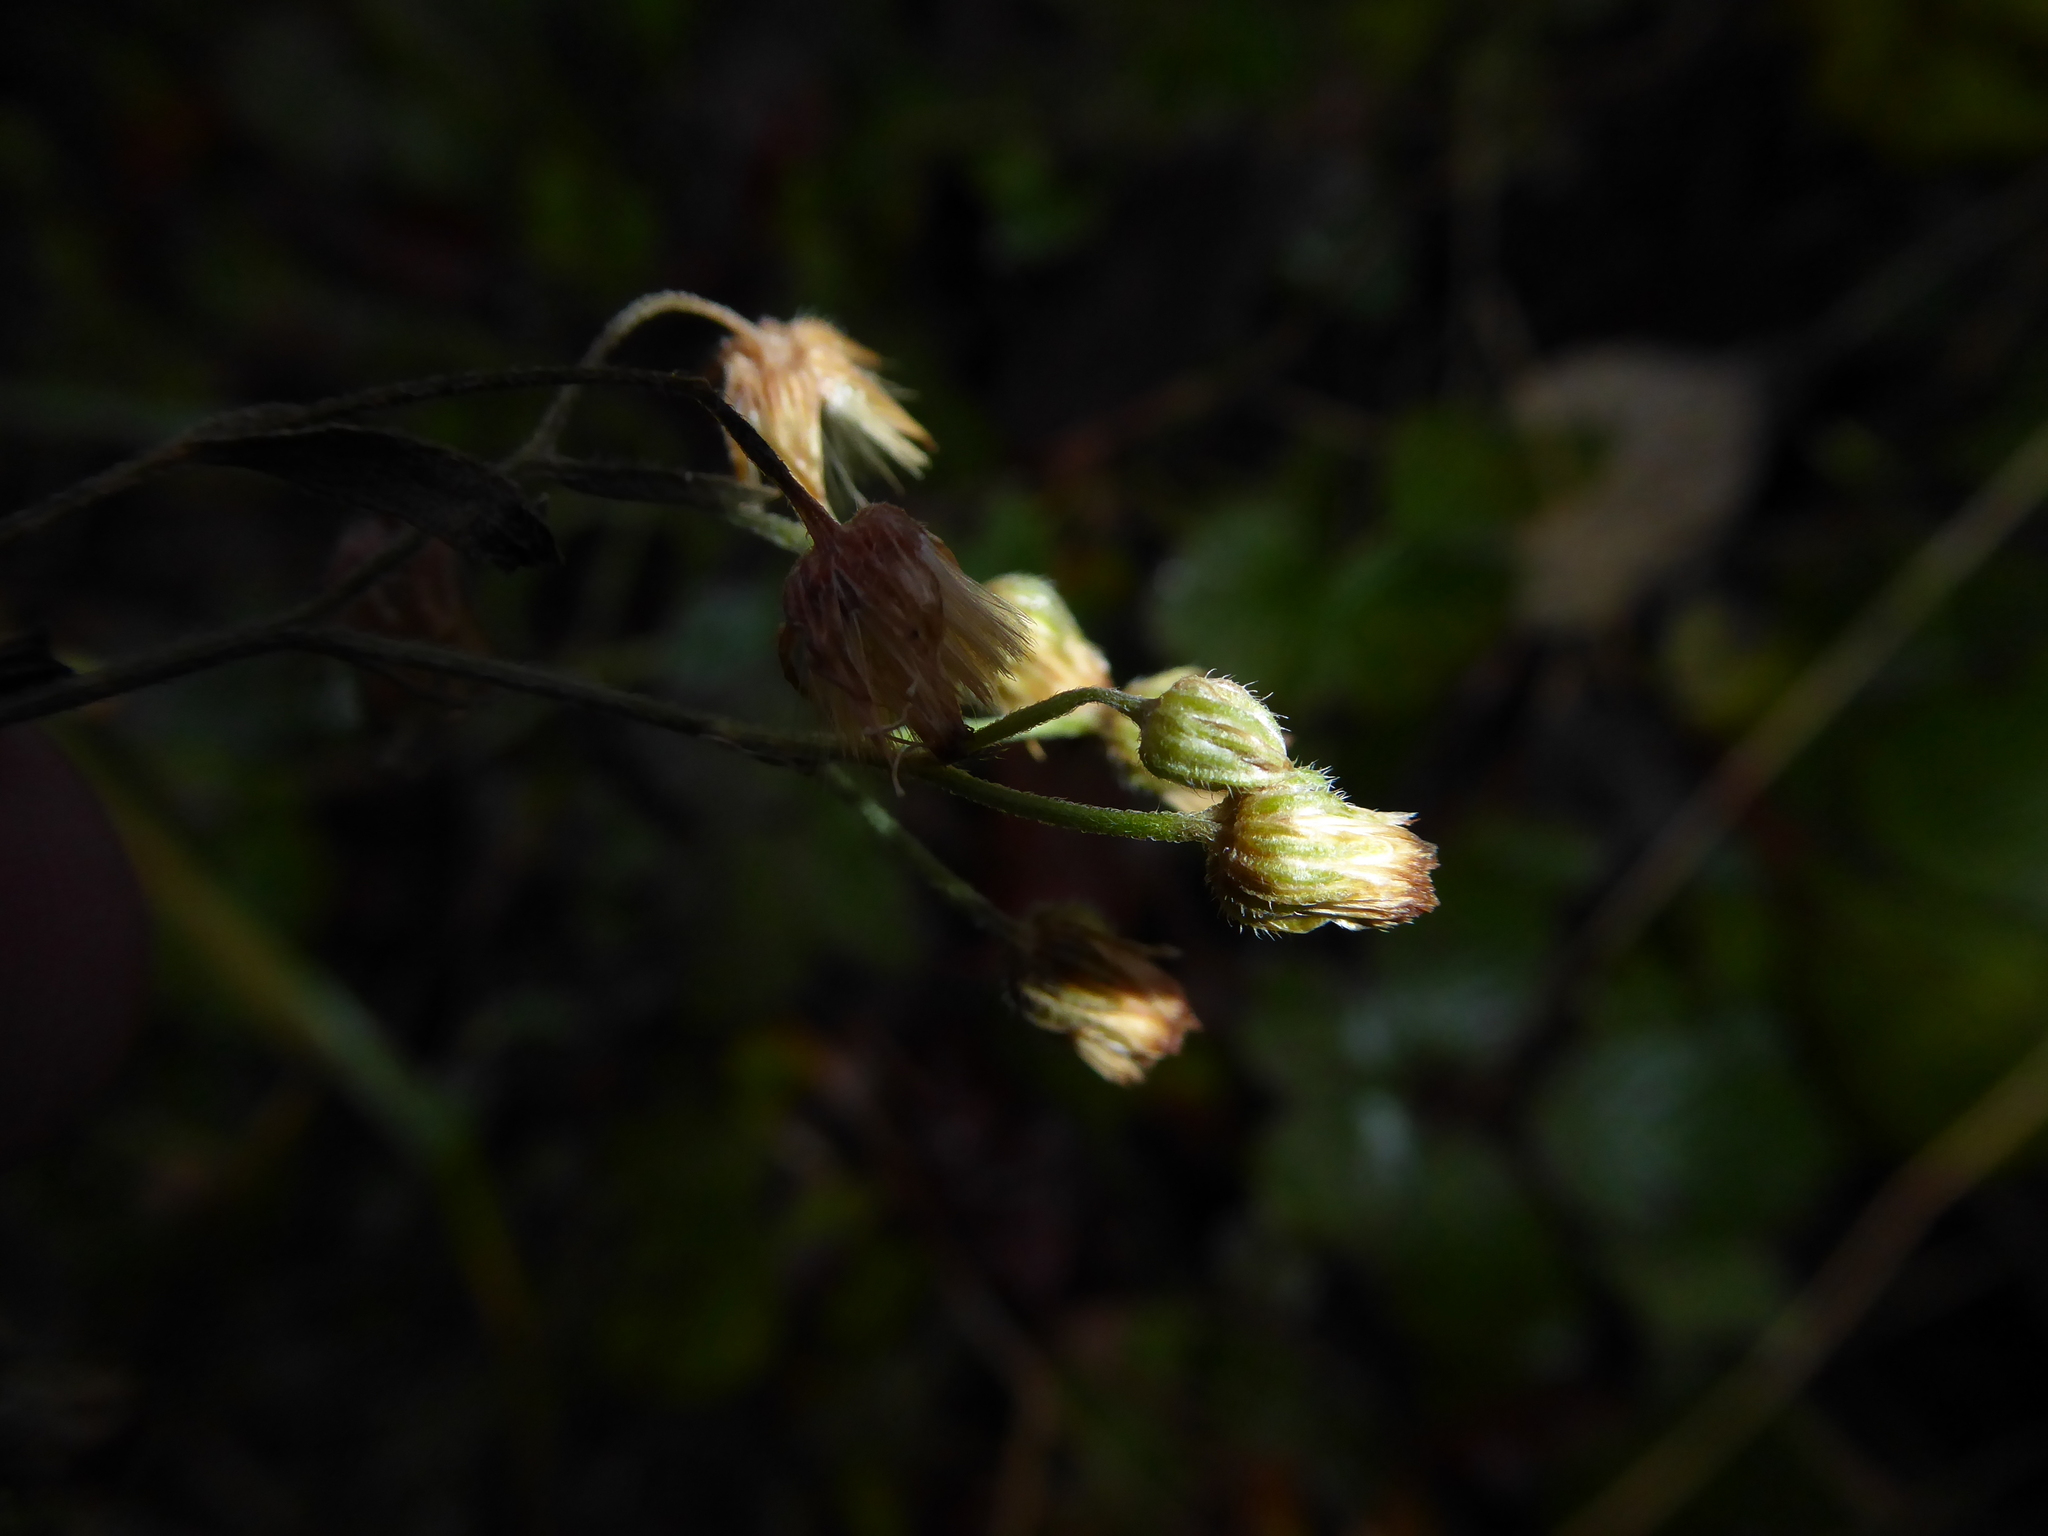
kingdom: Plantae
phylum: Tracheophyta
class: Magnoliopsida
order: Asterales
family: Asteraceae
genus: Erigeron
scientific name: Erigeron sumatrensis
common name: Daisy
